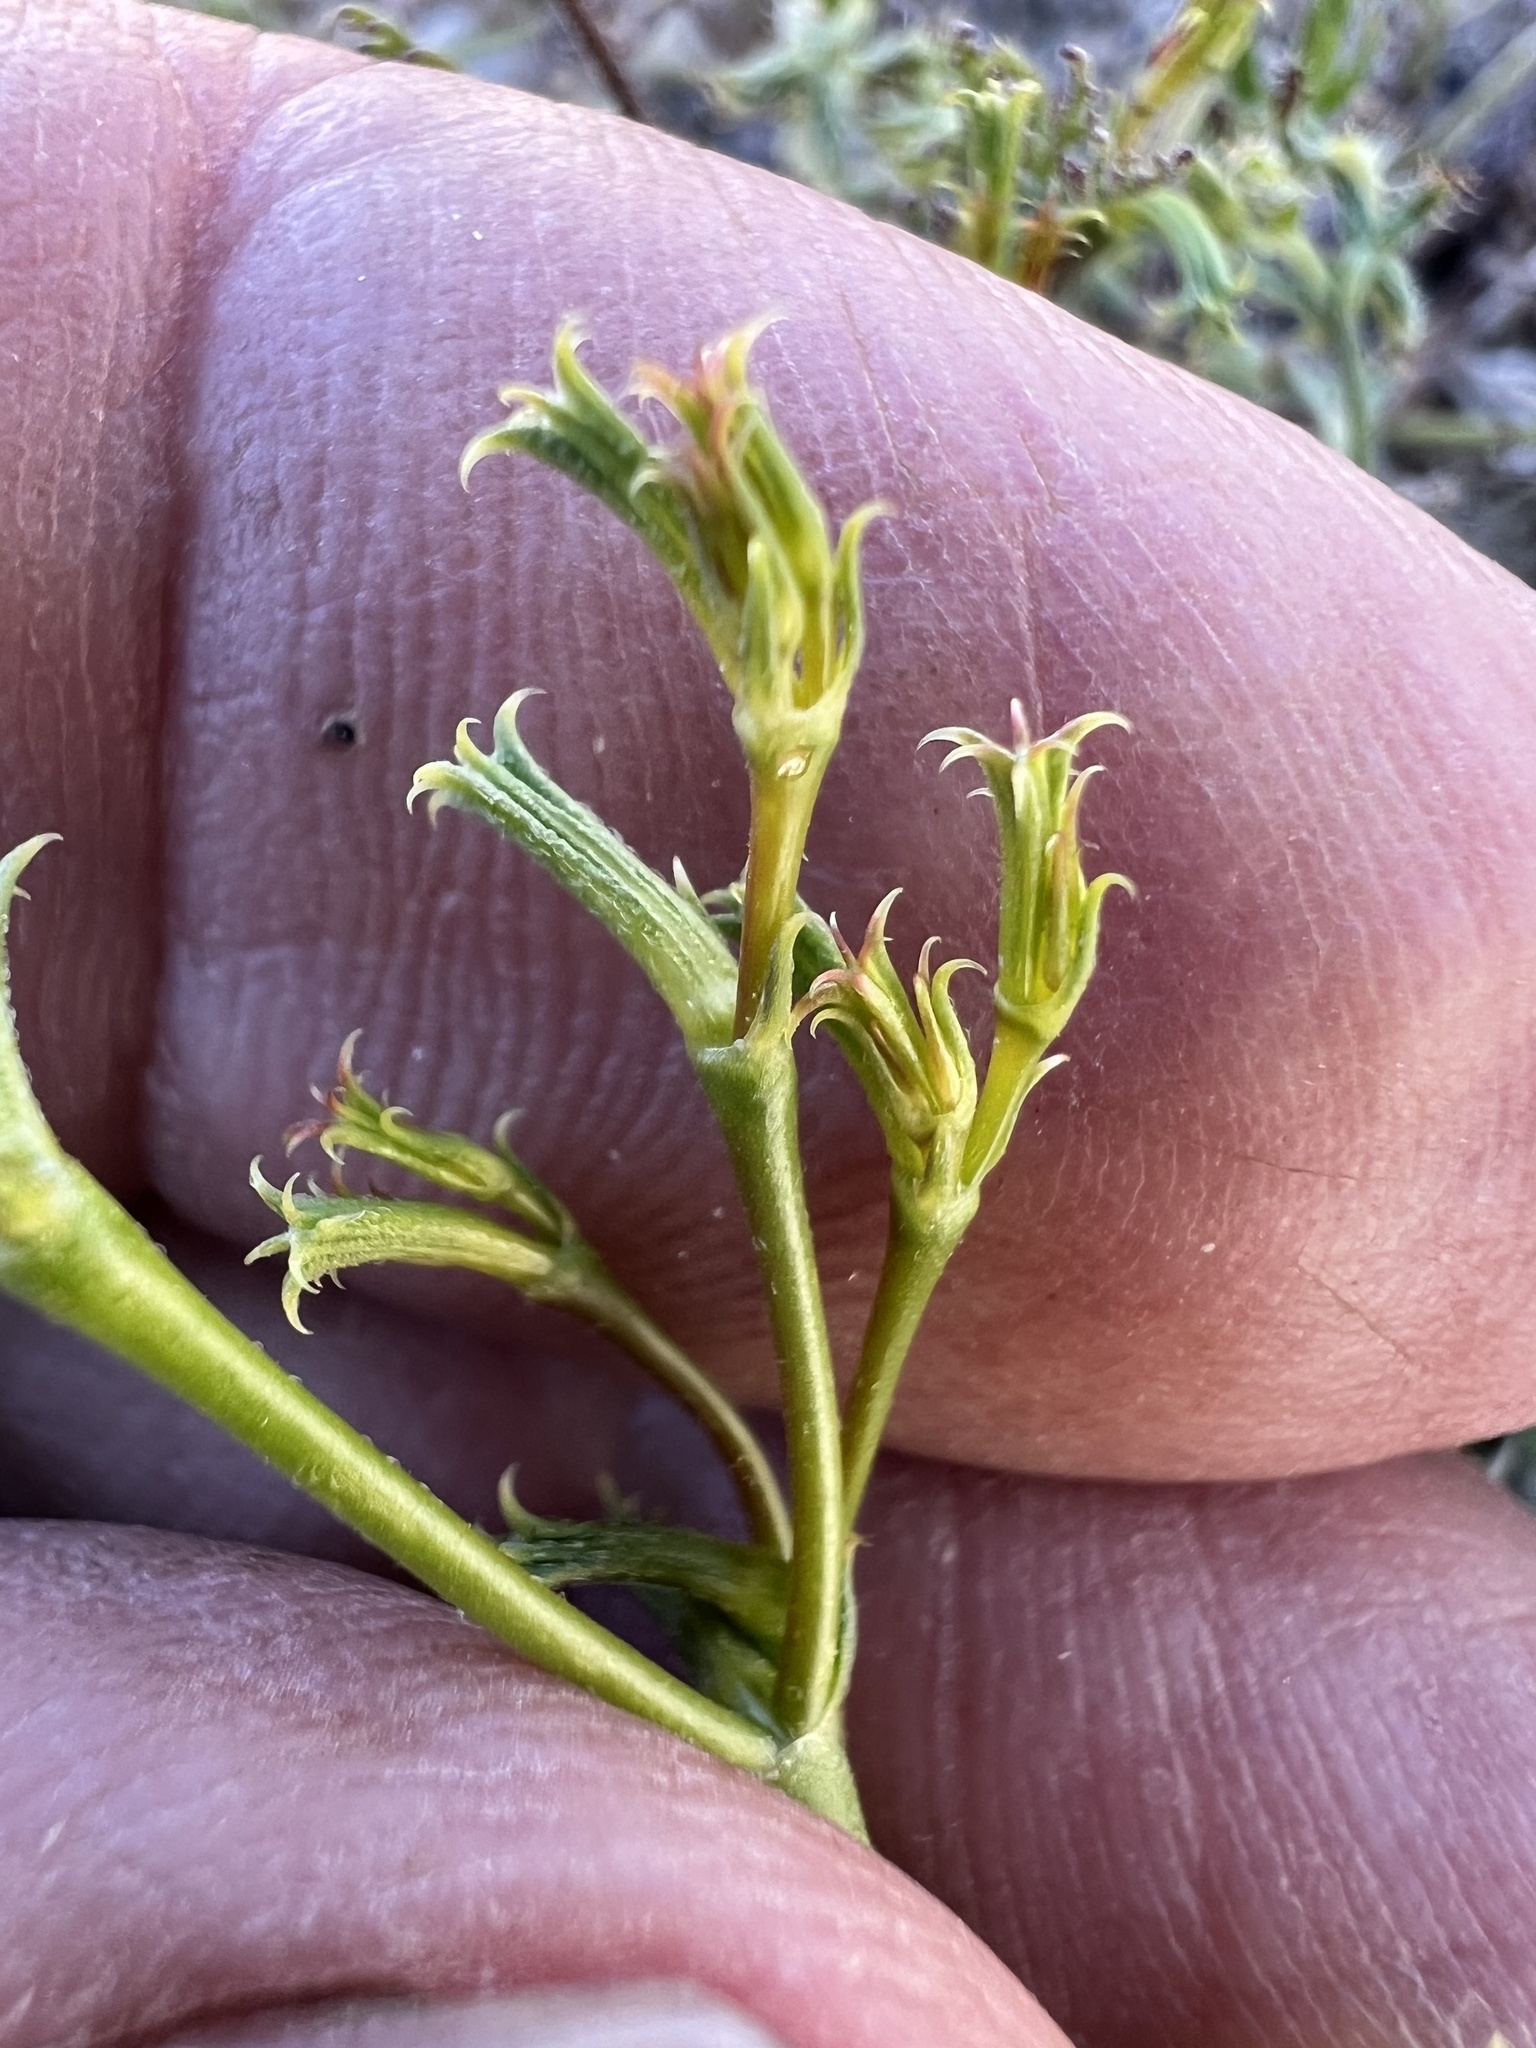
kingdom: Plantae
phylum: Tracheophyta
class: Magnoliopsida
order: Caryophyllales
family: Polygonaceae
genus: Chorizanthe
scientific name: Chorizanthe brevicornu
